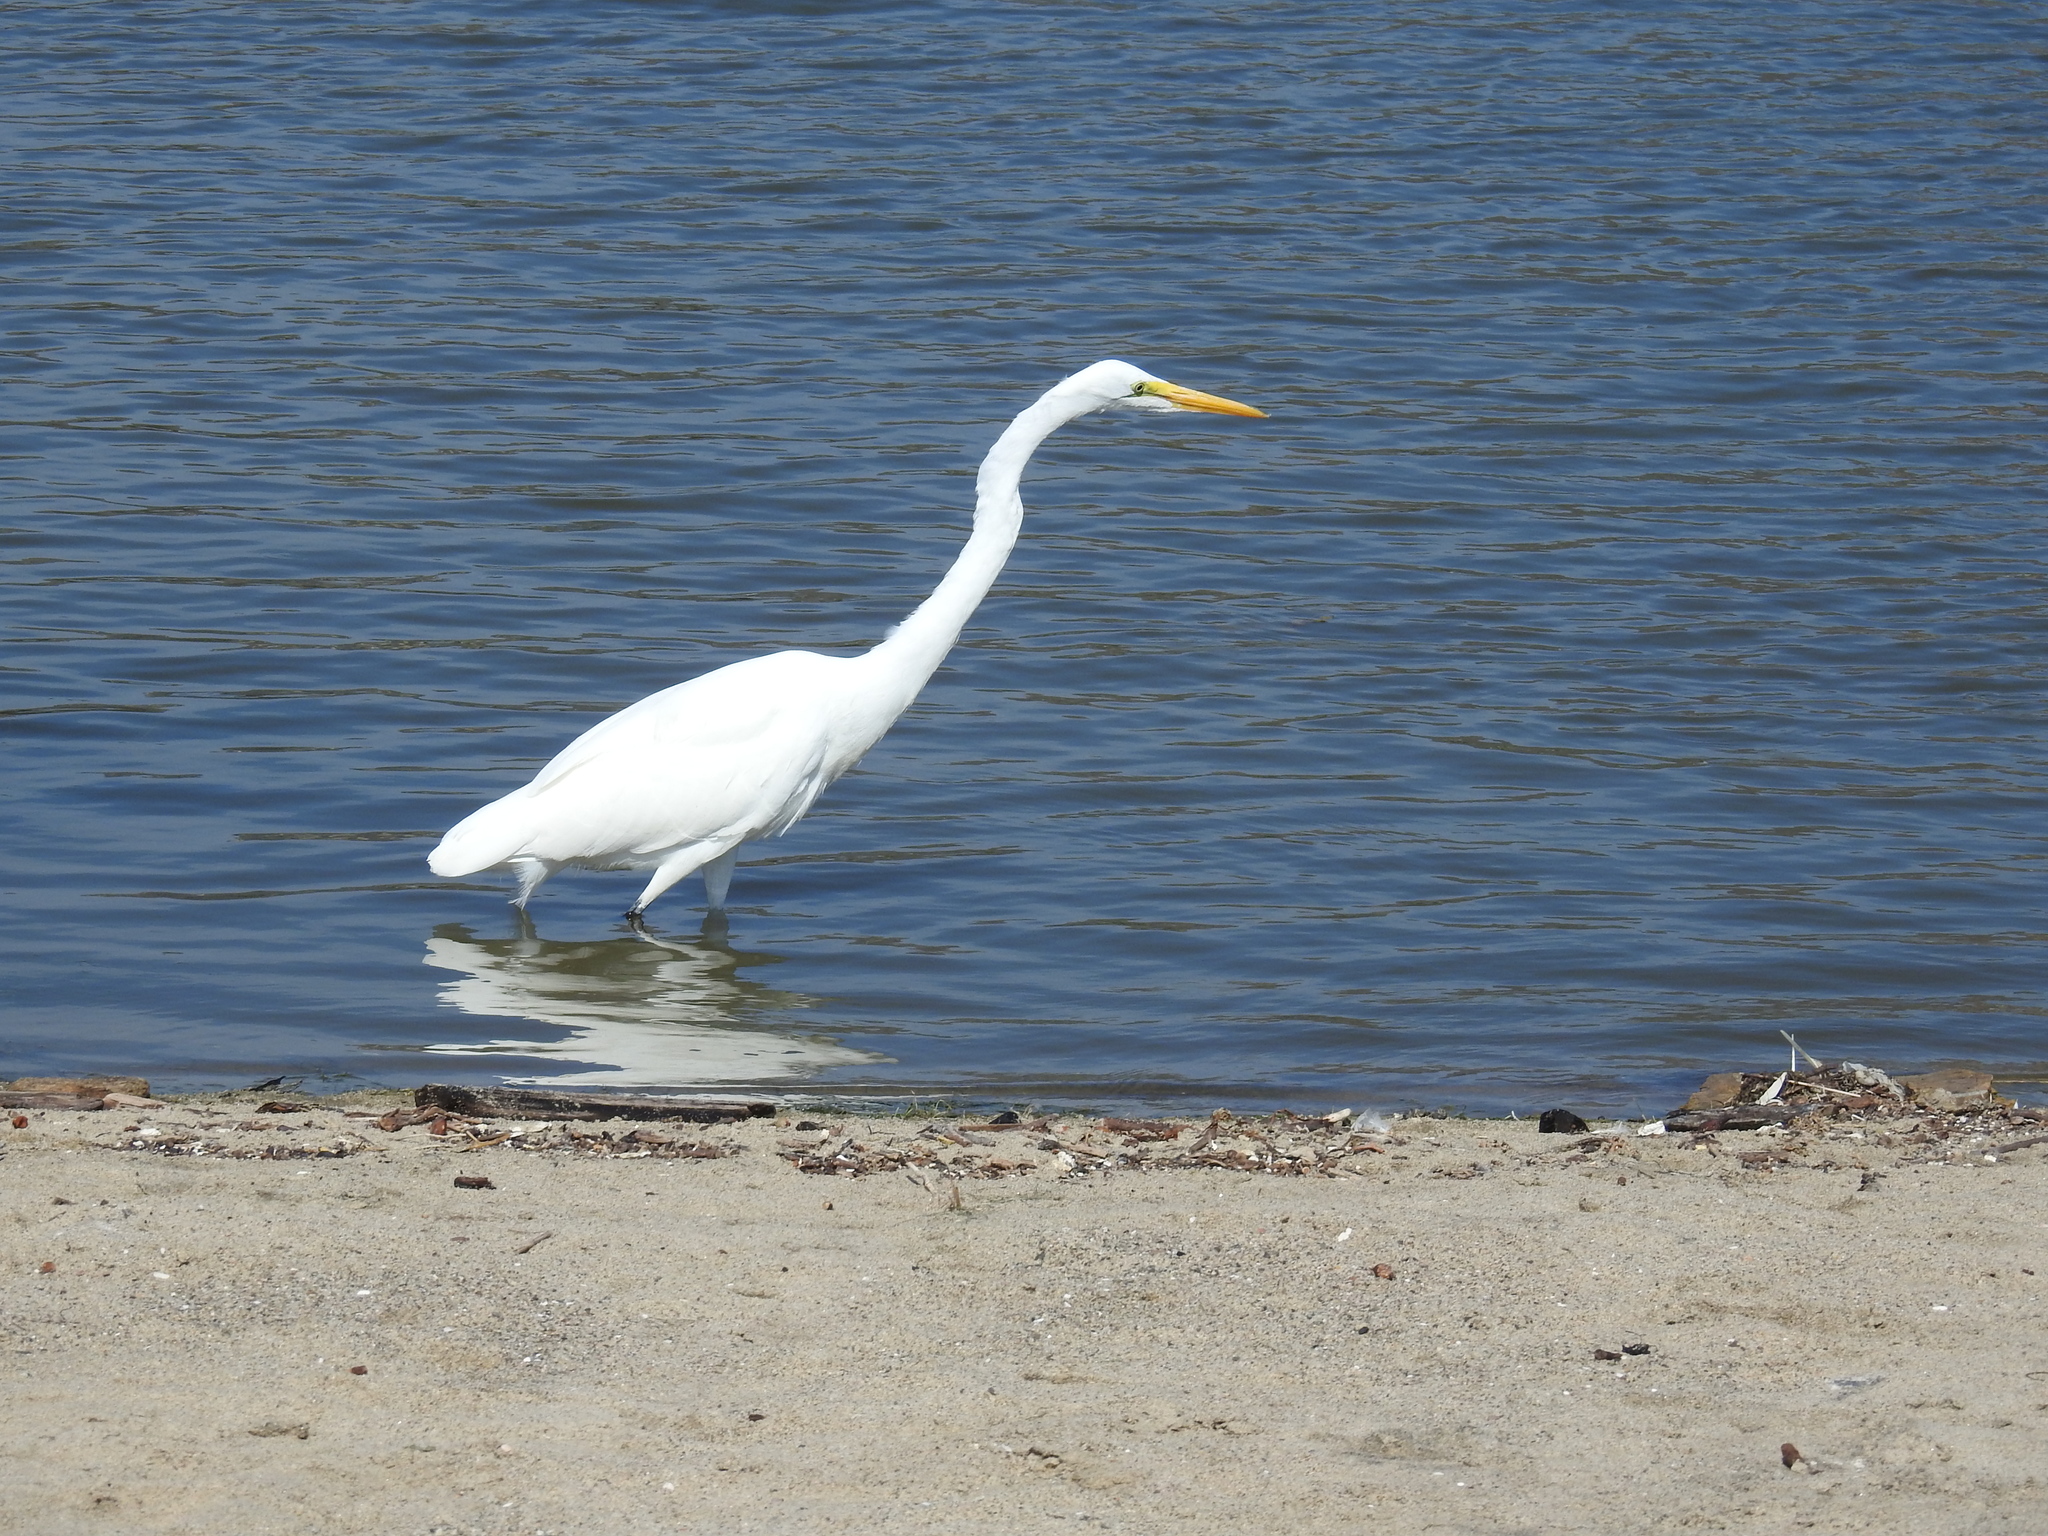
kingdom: Animalia
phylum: Chordata
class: Aves
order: Pelecaniformes
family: Ardeidae
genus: Ardea
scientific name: Ardea alba
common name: Great egret
